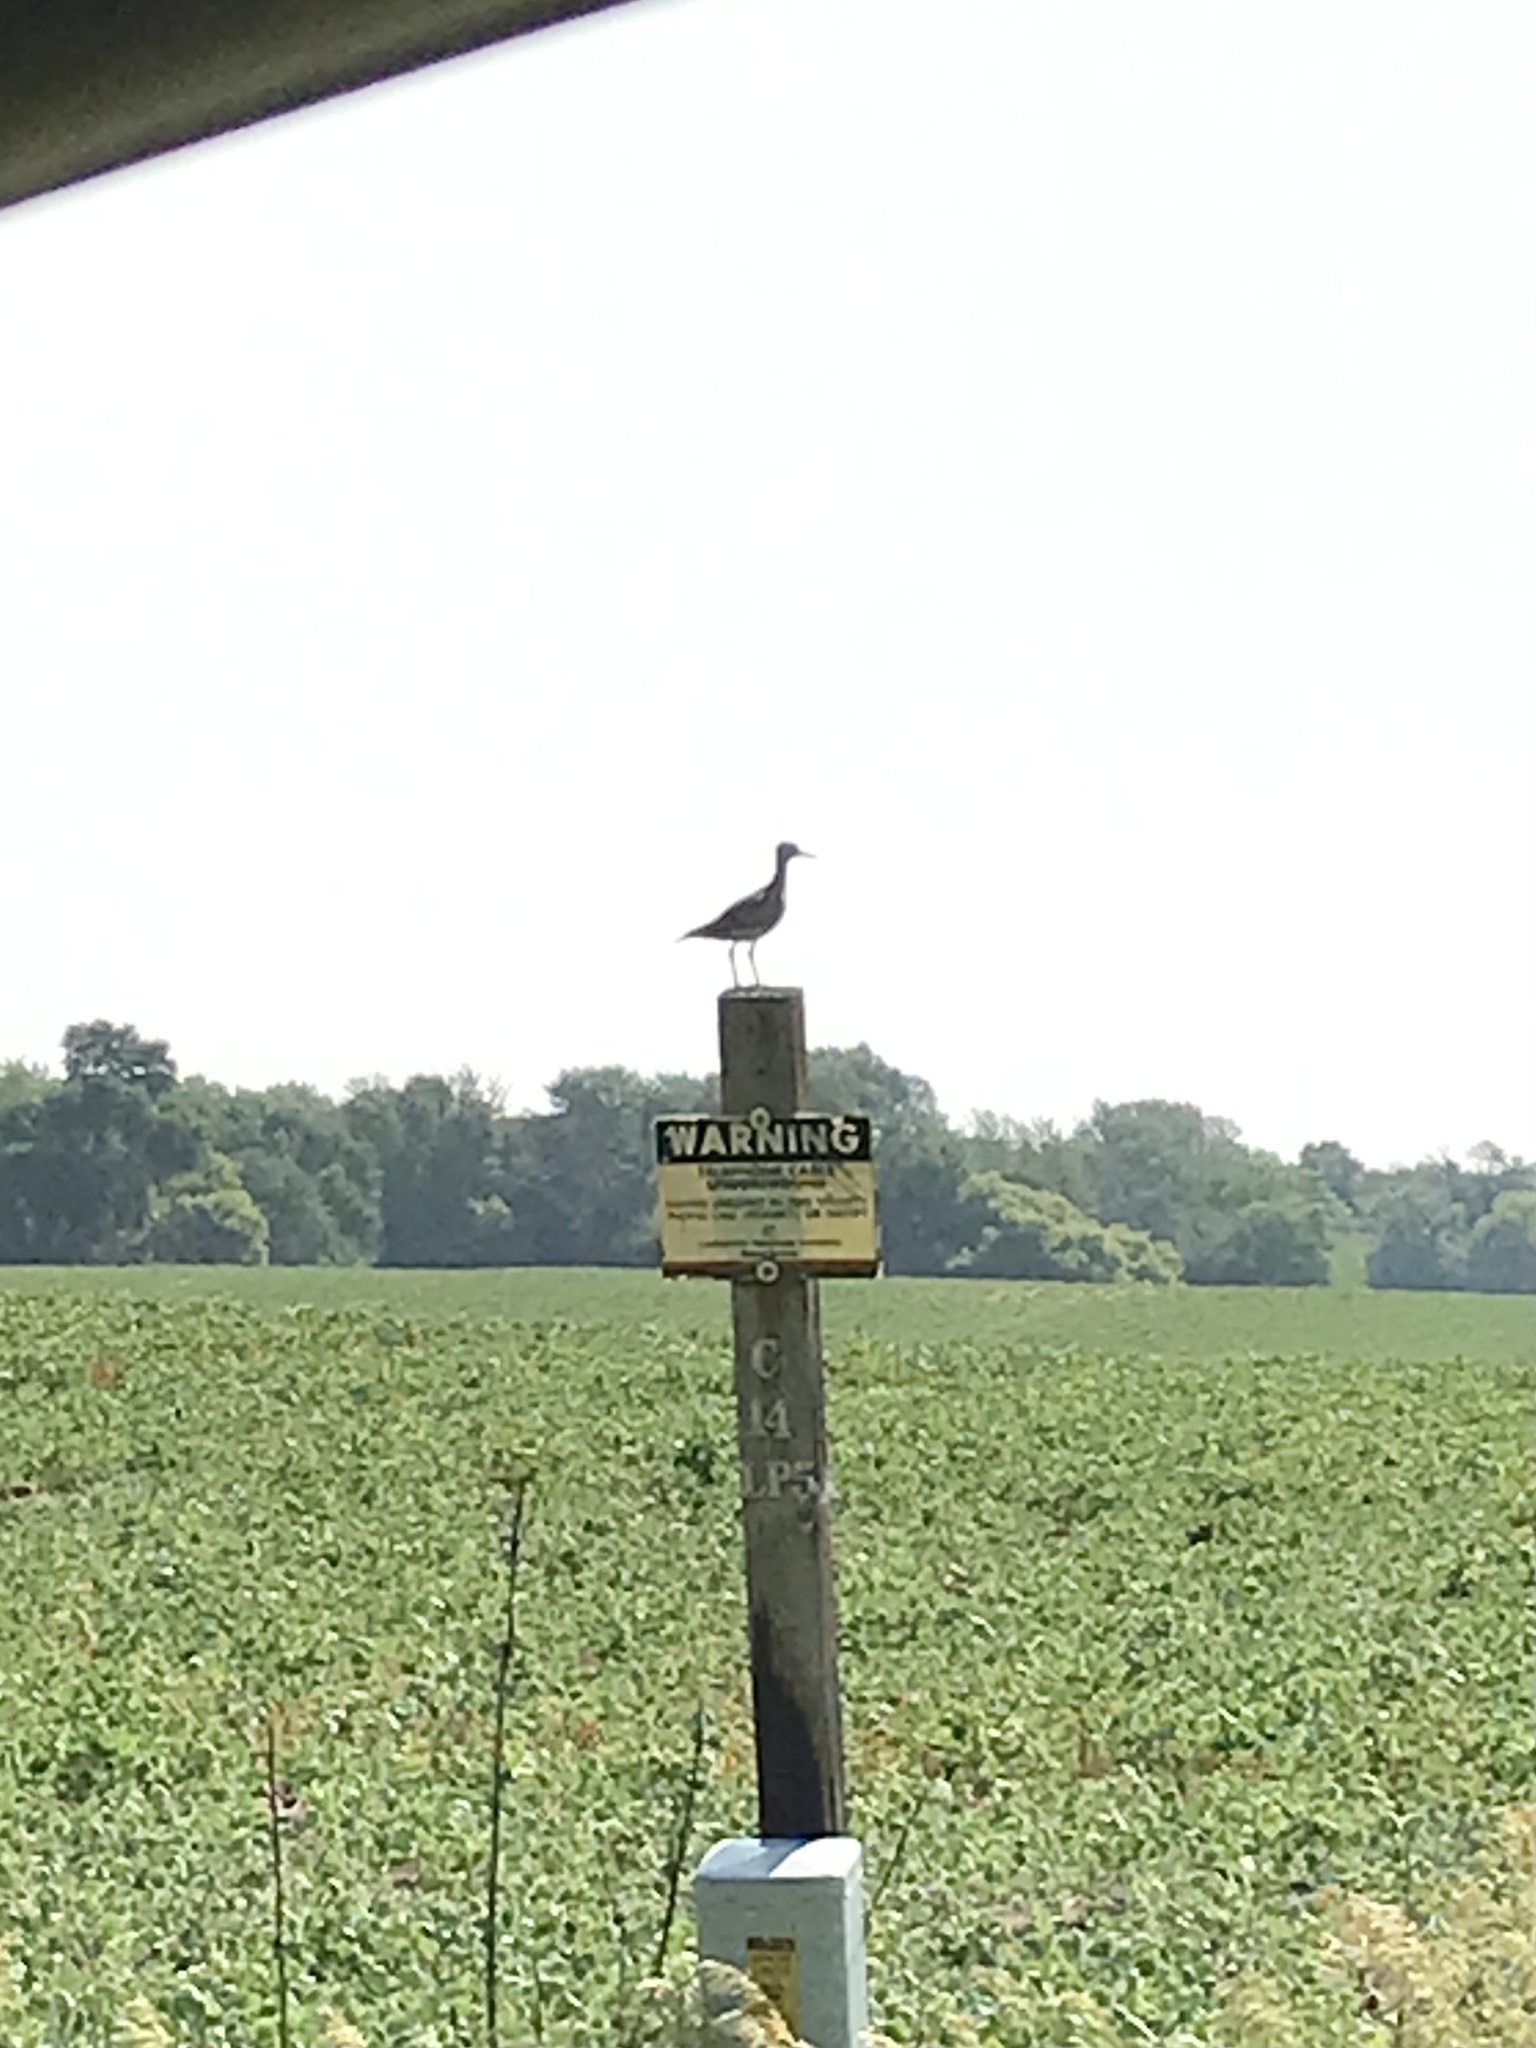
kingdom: Animalia
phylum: Chordata
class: Aves
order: Charadriiformes
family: Scolopacidae
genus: Bartramia
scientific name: Bartramia longicauda
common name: Upland sandpiper
